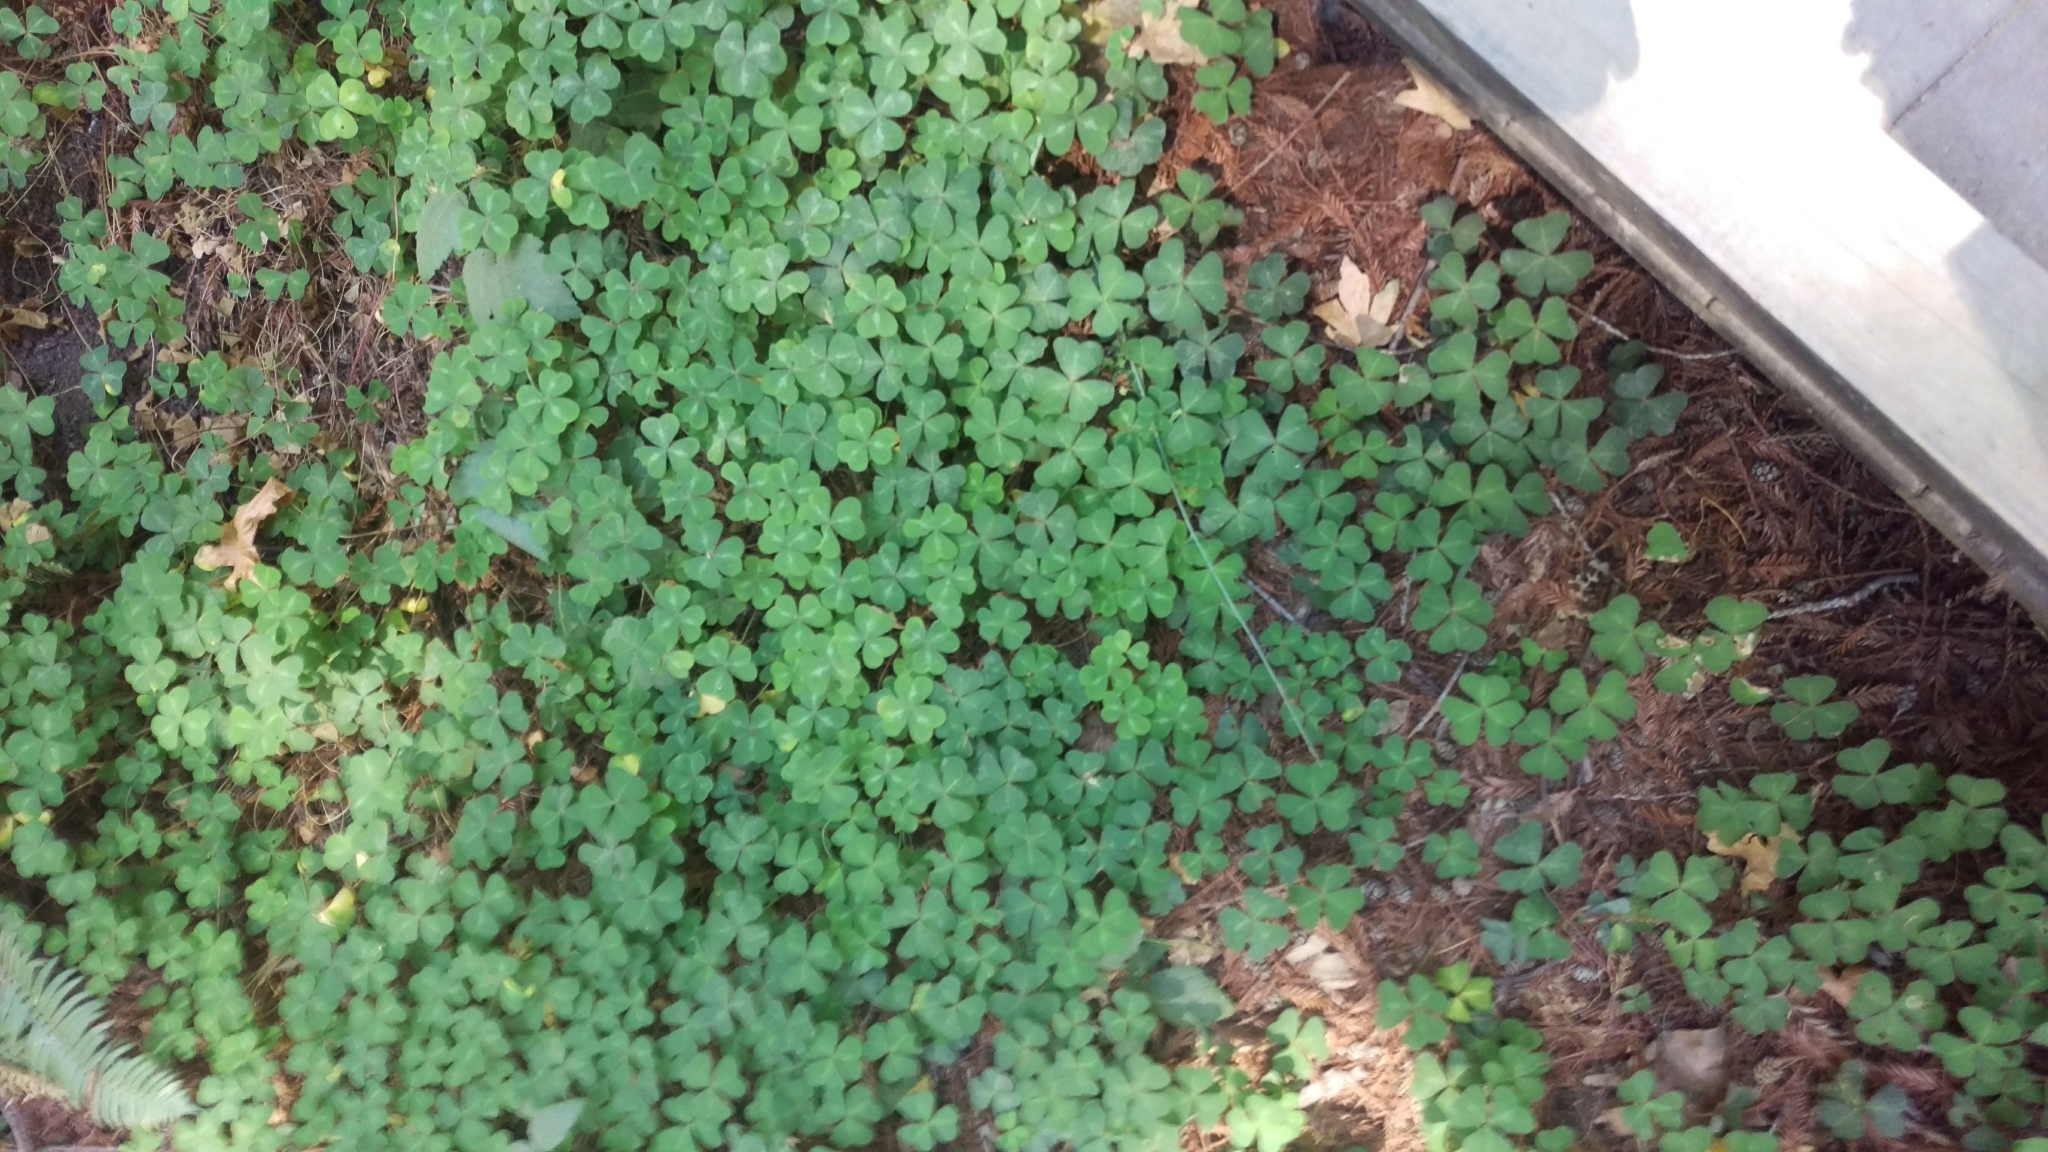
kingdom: Plantae
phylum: Tracheophyta
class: Magnoliopsida
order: Oxalidales
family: Oxalidaceae
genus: Oxalis
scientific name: Oxalis oregana
